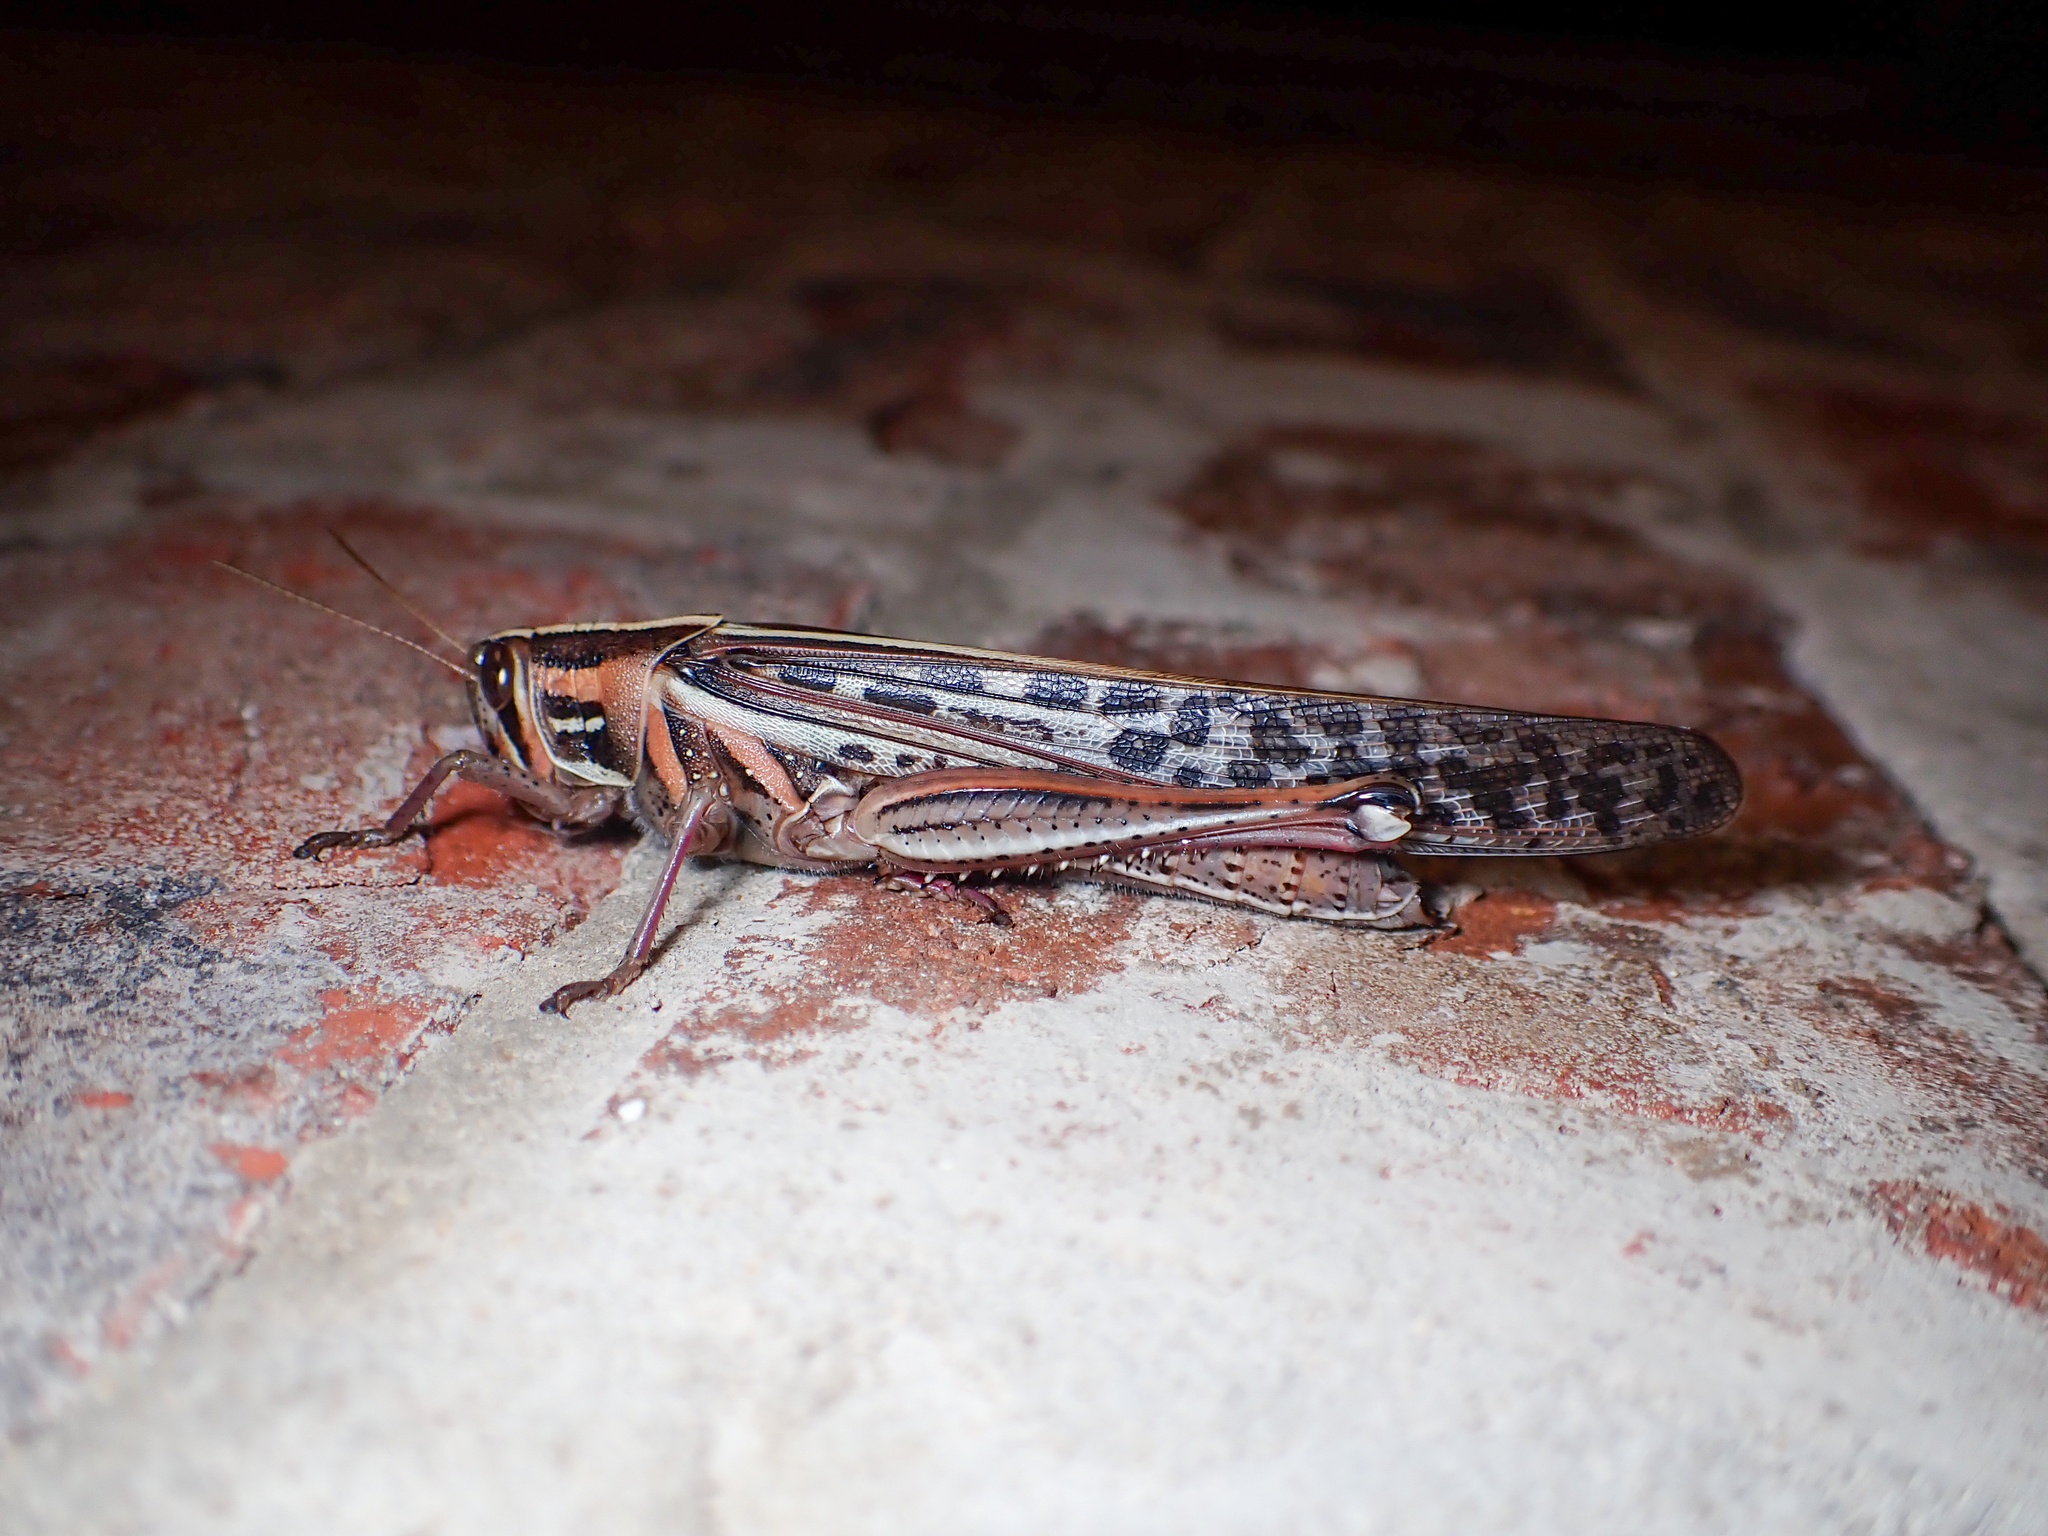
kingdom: Animalia
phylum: Arthropoda
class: Insecta
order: Orthoptera
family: Acrididae
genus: Schistocerca
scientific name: Schistocerca americana
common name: American bird locust
